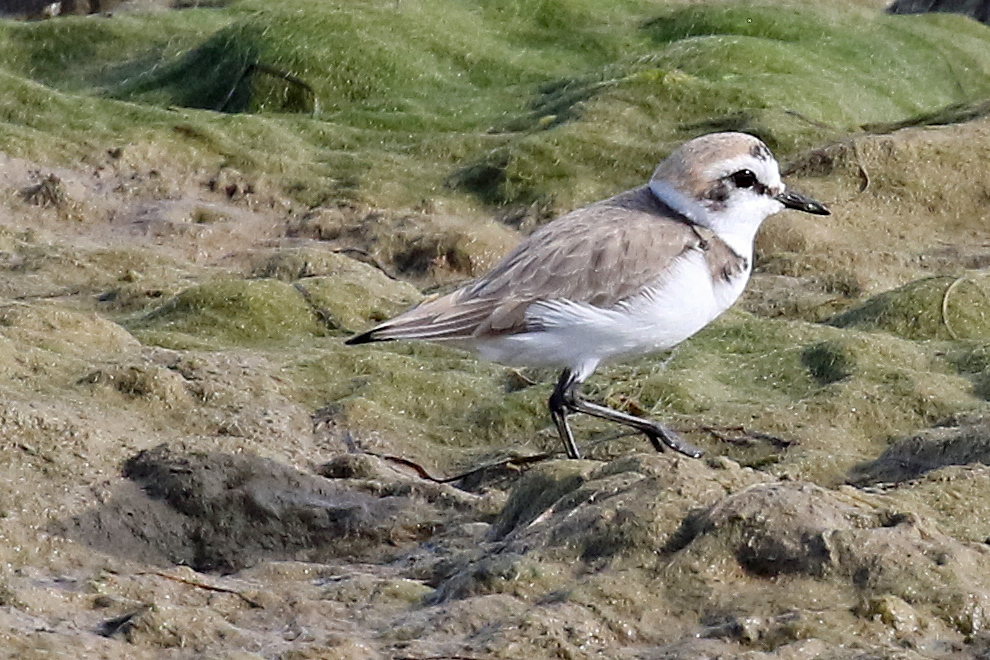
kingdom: Animalia
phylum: Chordata
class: Aves
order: Charadriiformes
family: Charadriidae
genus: Charadrius
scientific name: Charadrius alexandrinus
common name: Kentish plover
